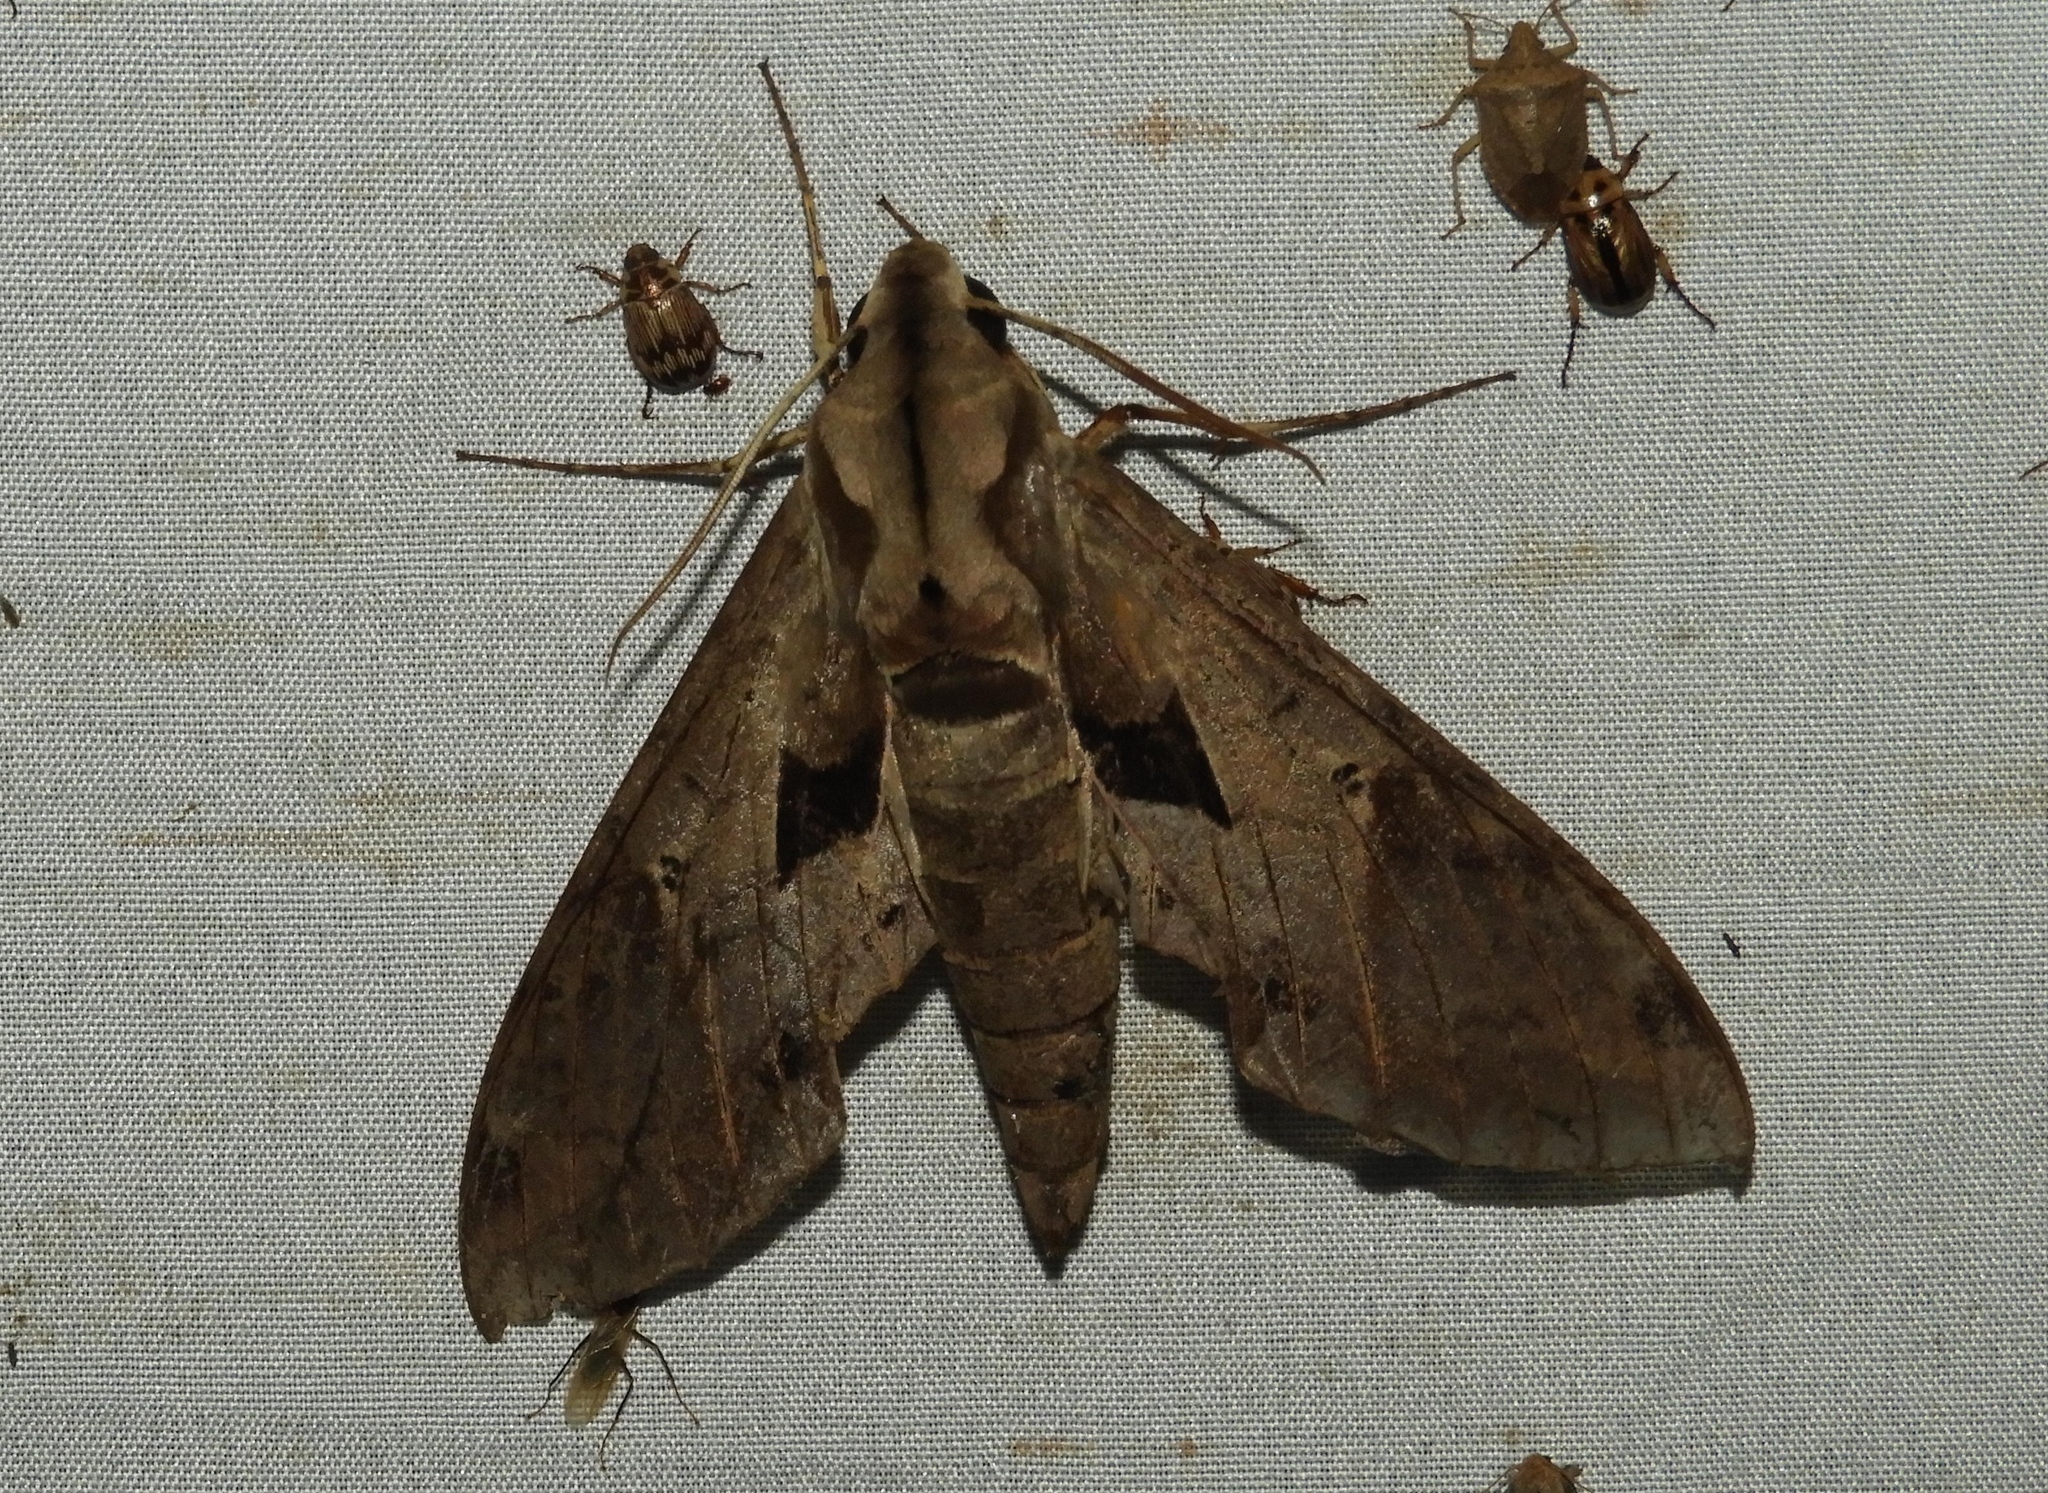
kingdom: Animalia
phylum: Arthropoda
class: Insecta
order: Lepidoptera
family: Sphingidae
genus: Eumorpha
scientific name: Eumorpha satellitia
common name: Satellite sphinx
